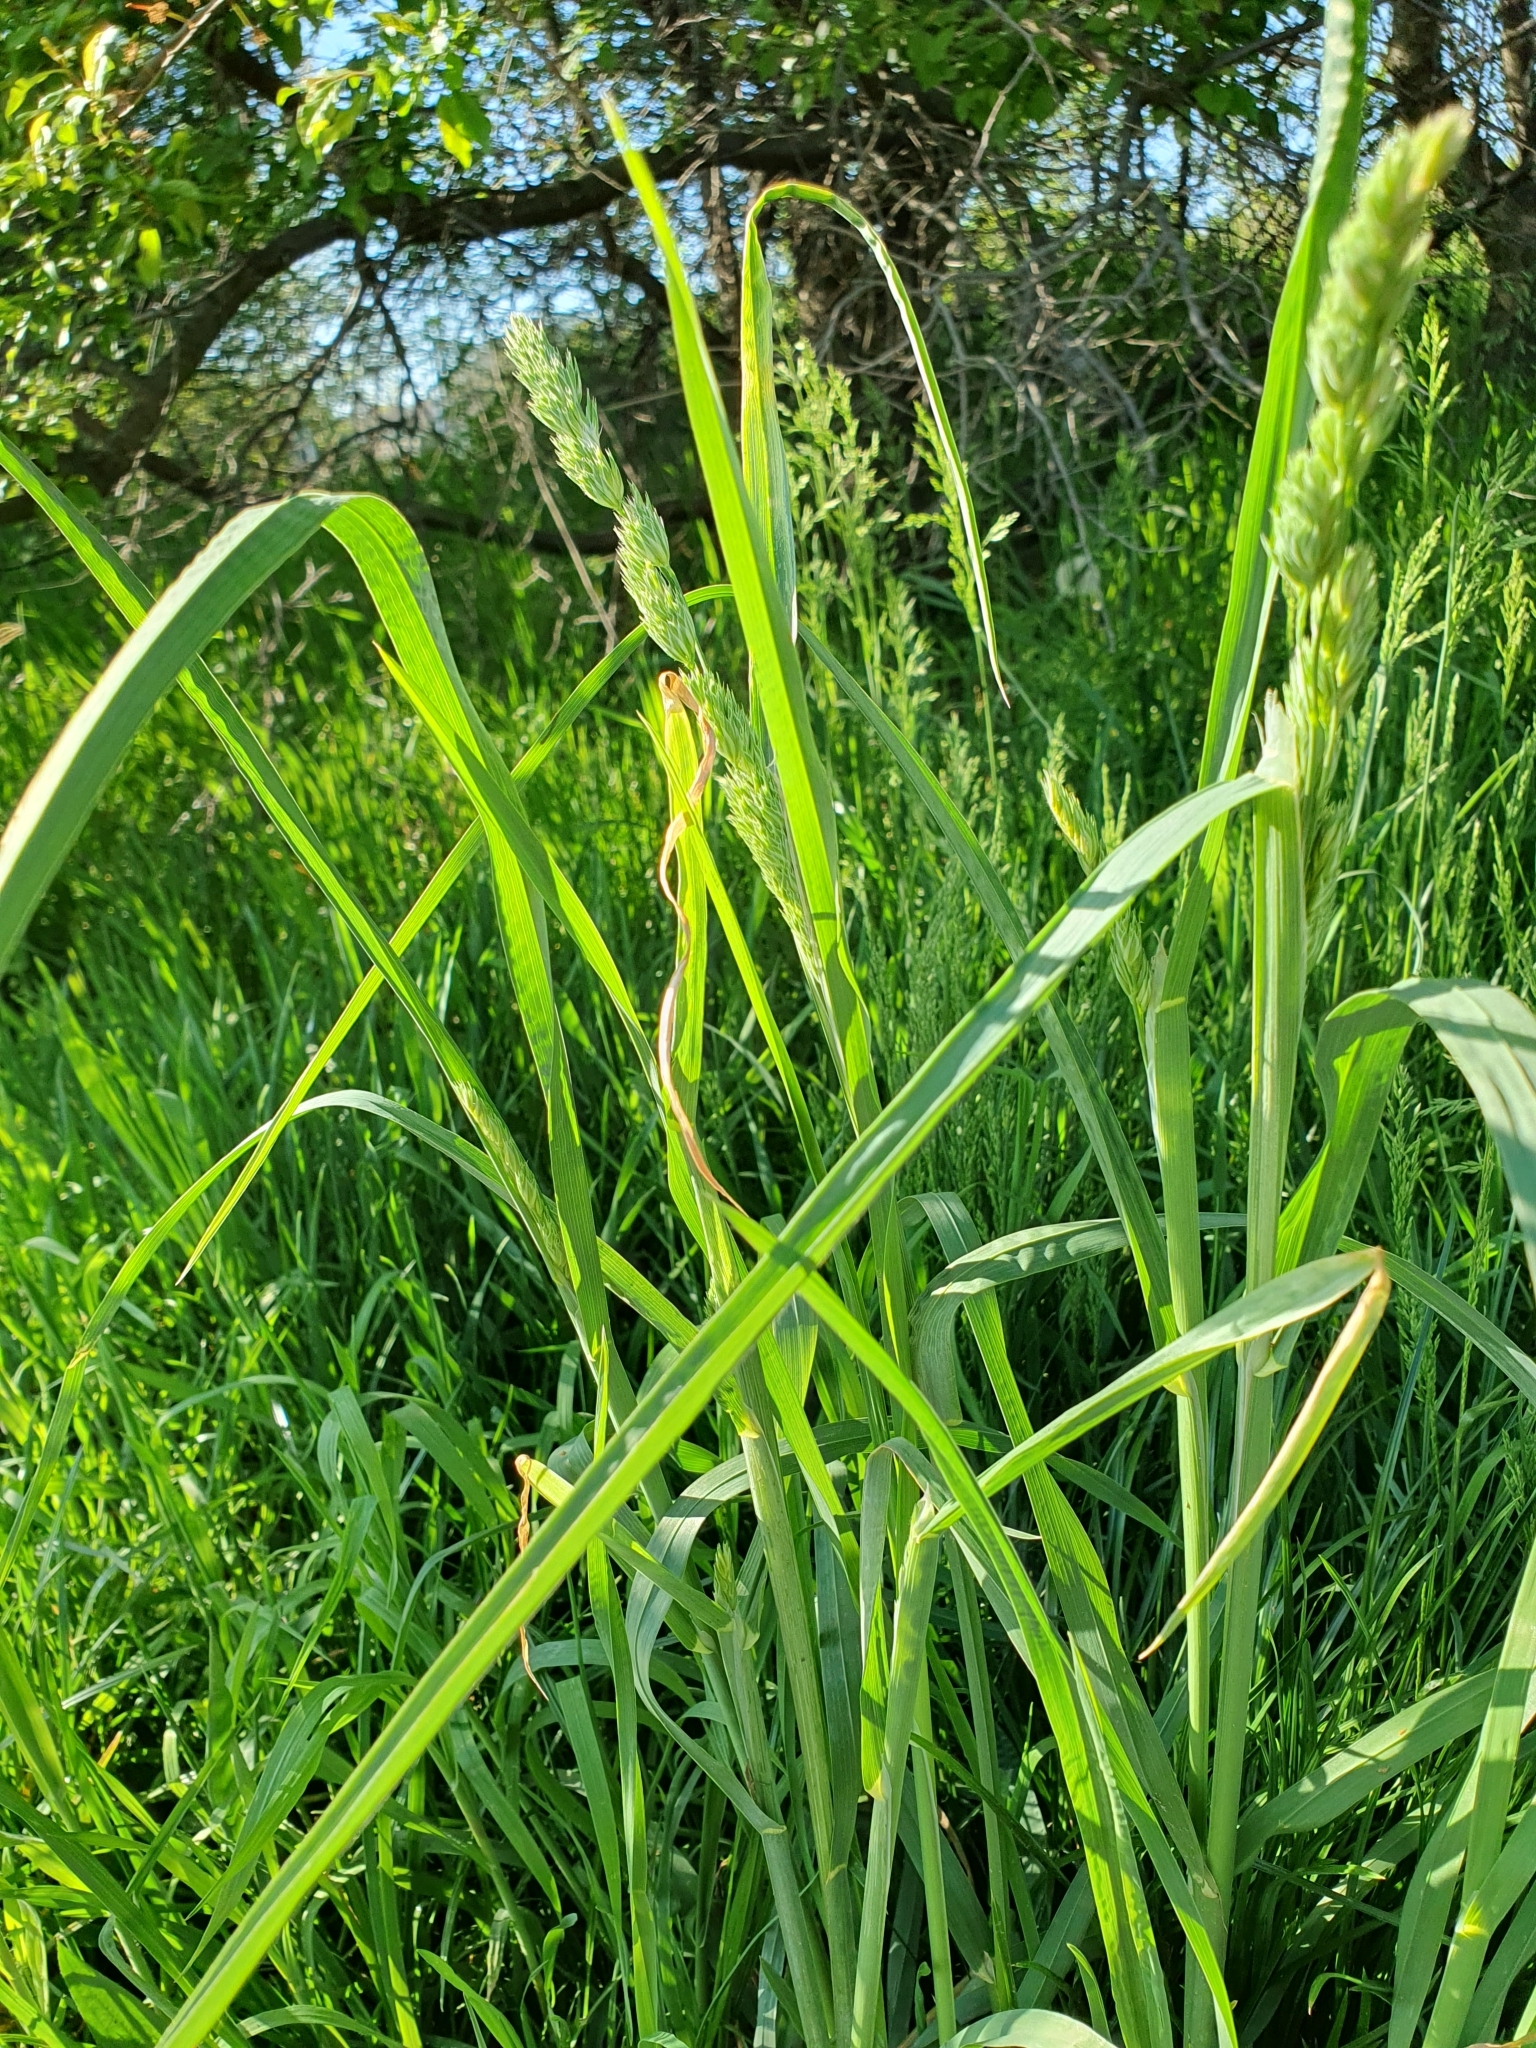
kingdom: Plantae
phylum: Tracheophyta
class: Liliopsida
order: Poales
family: Poaceae
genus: Dactylis
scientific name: Dactylis glomerata
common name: Orchardgrass
